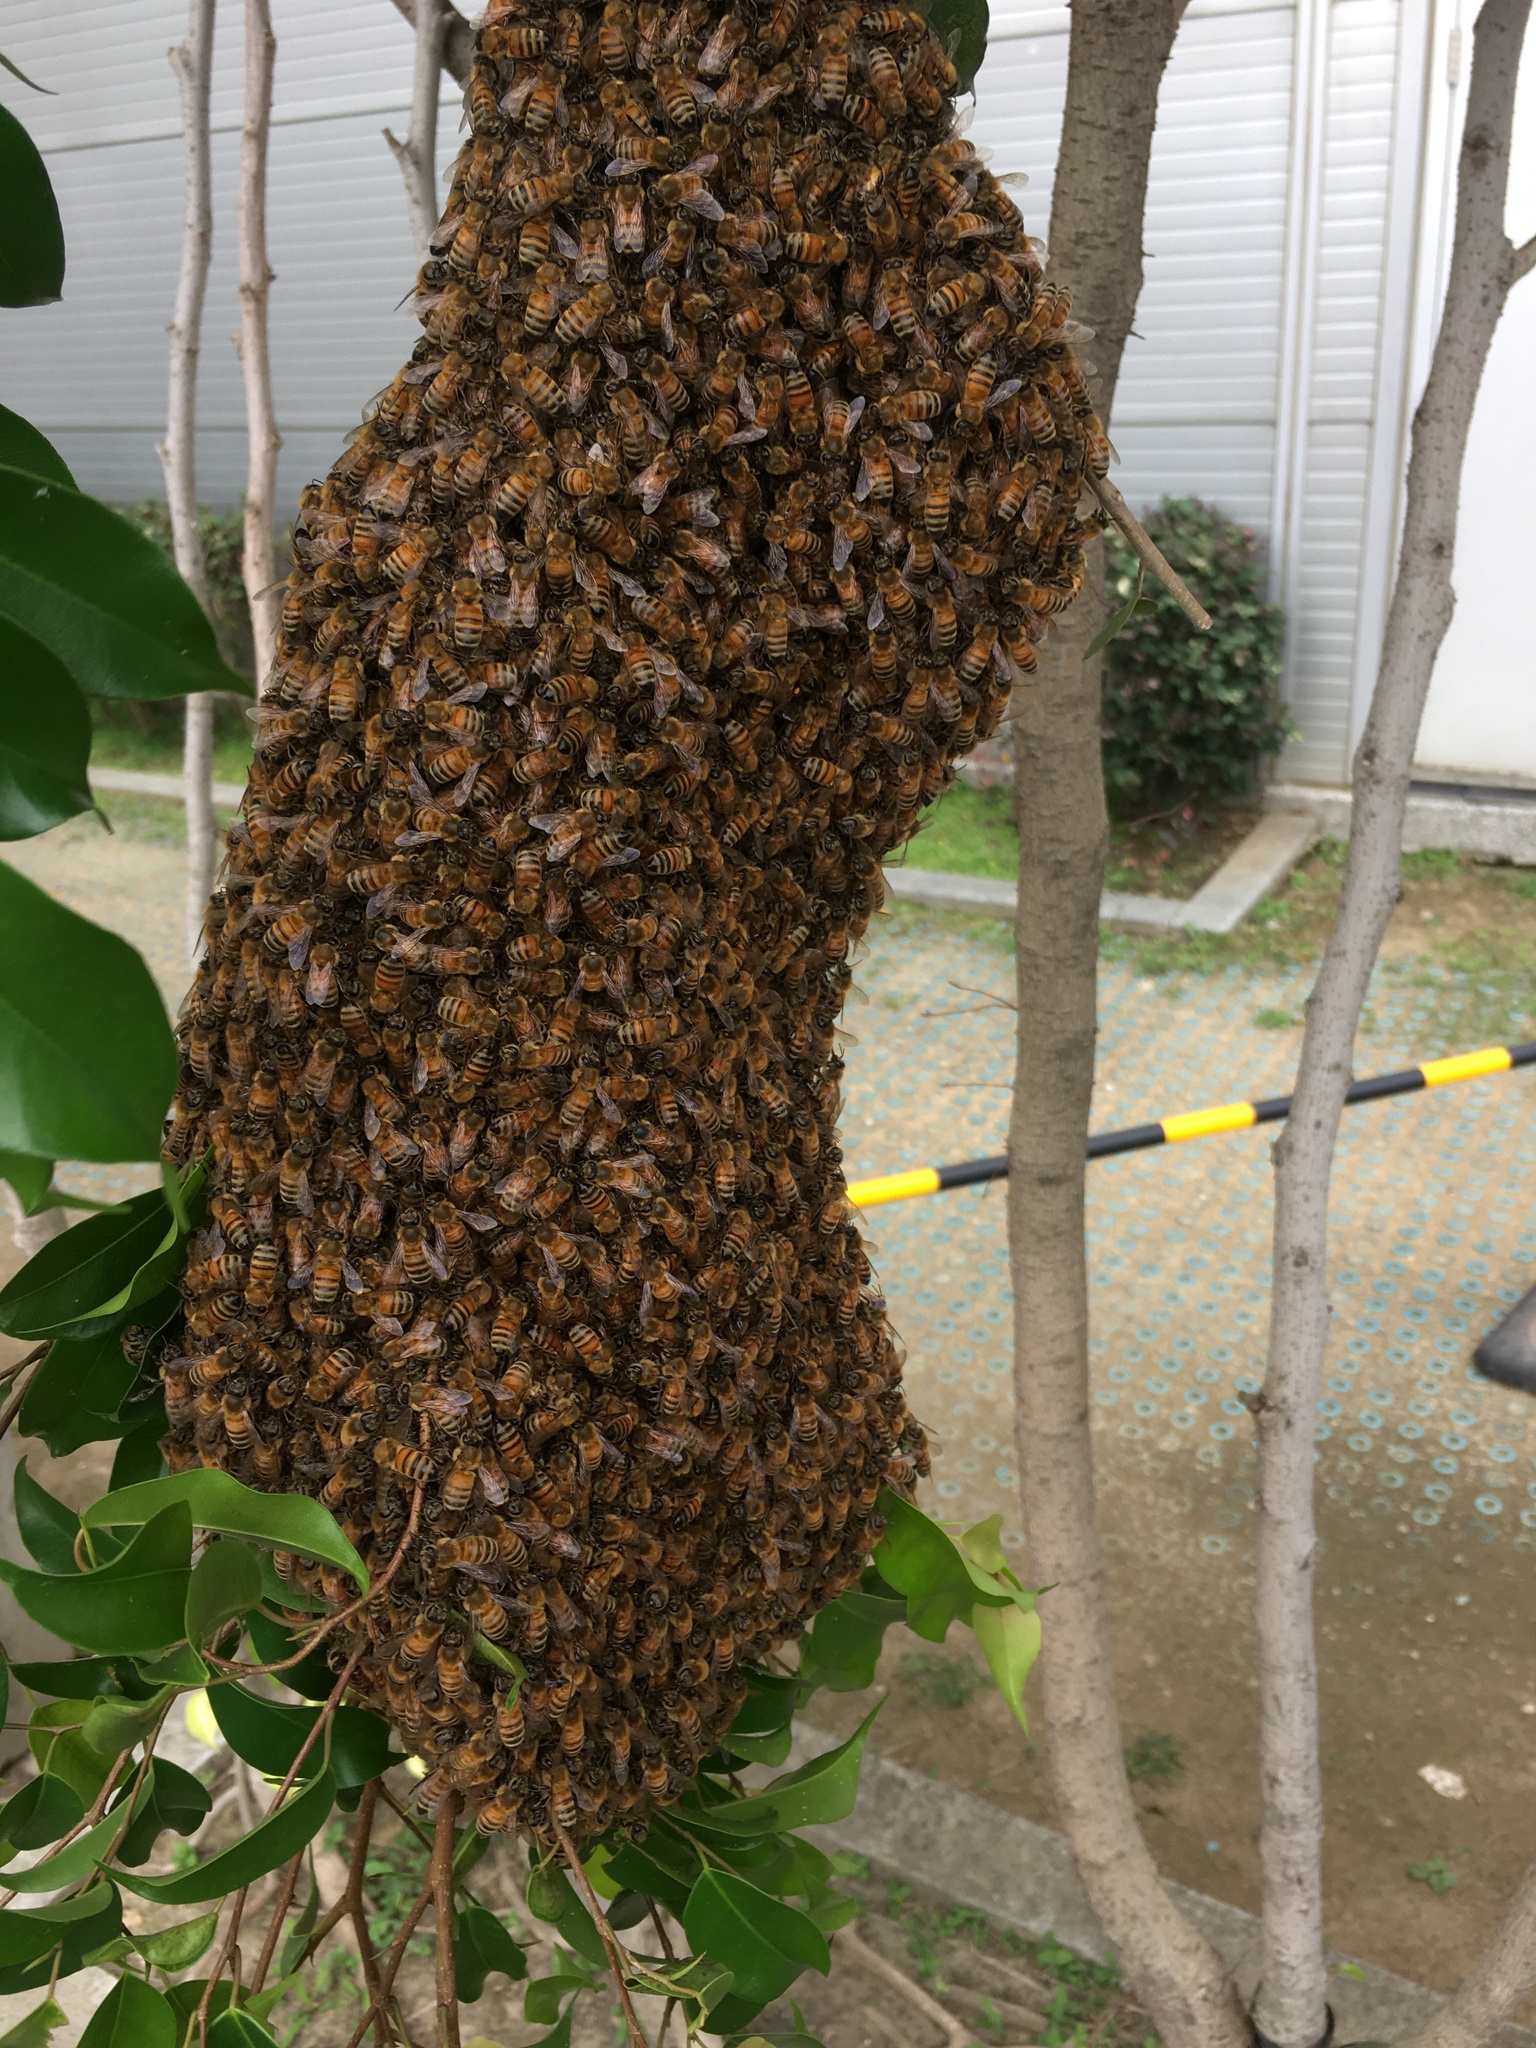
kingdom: Animalia
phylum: Arthropoda
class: Insecta
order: Hymenoptera
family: Apidae
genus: Apis
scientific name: Apis mellifera
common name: Honey bee
